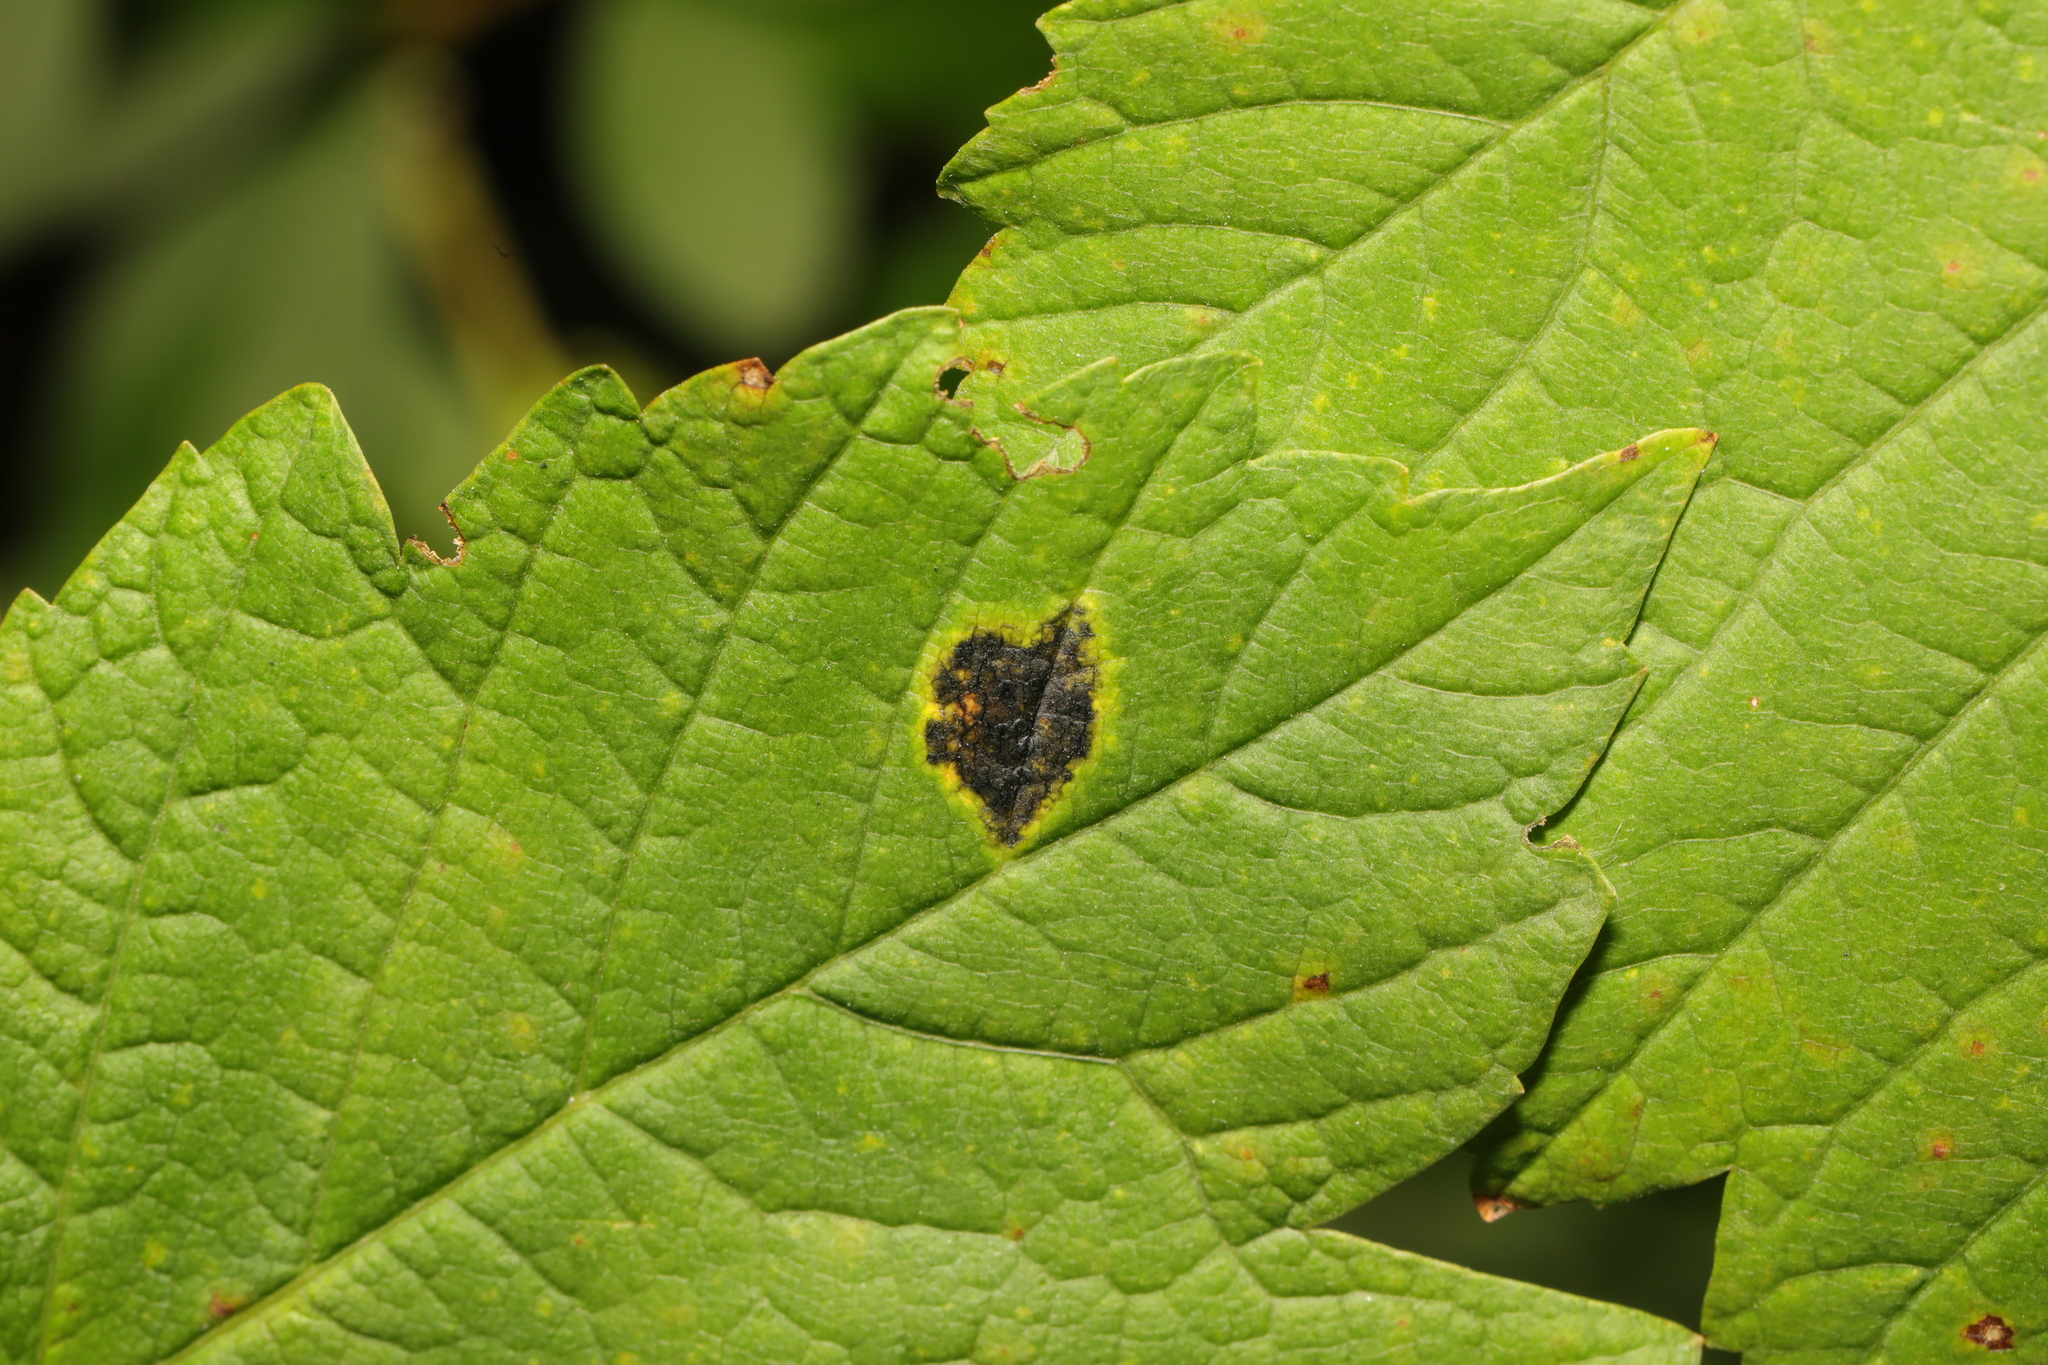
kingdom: Fungi
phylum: Ascomycota
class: Leotiomycetes
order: Rhytismatales
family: Rhytismataceae
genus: Rhytisma
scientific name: Rhytisma acerinum
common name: European tar spot
